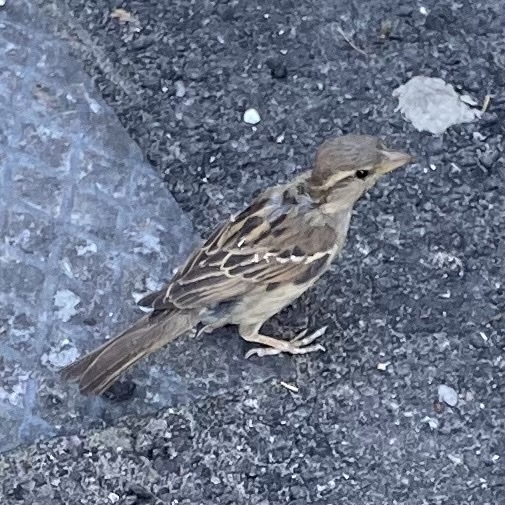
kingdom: Animalia
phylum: Chordata
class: Aves
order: Passeriformes
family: Passeridae
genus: Passer
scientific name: Passer italiae
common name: Italian sparrow
